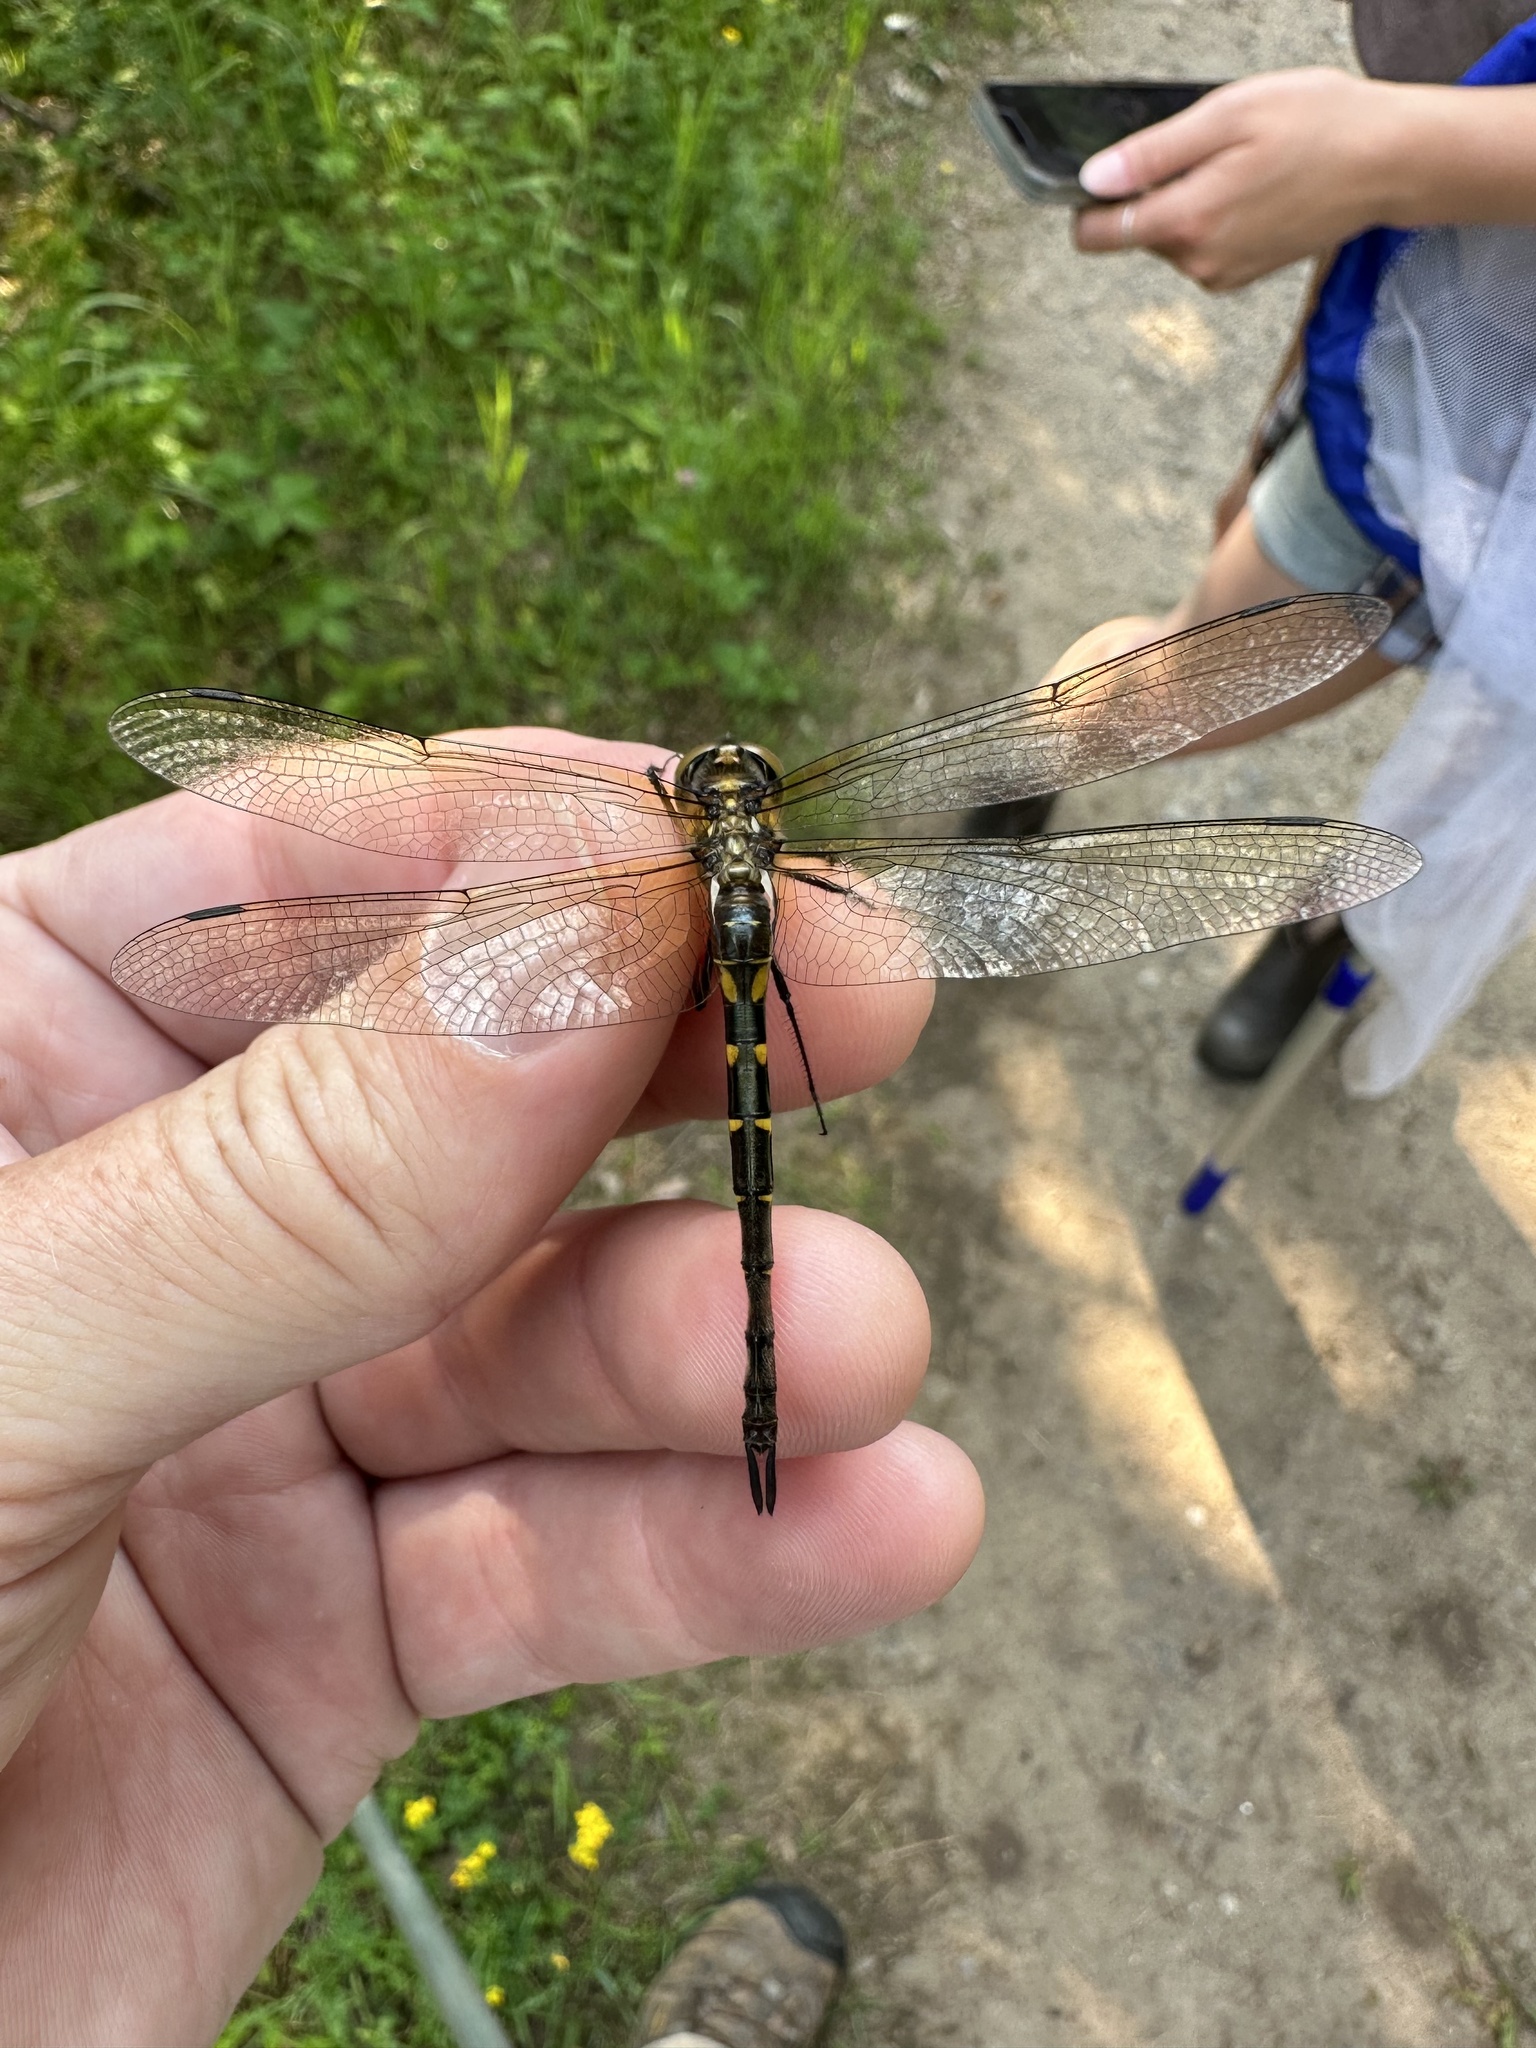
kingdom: Animalia
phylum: Arthropoda
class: Insecta
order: Odonata
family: Corduliidae
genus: Somatochlora
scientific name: Somatochlora walshii
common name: Brush-tipped emerald
